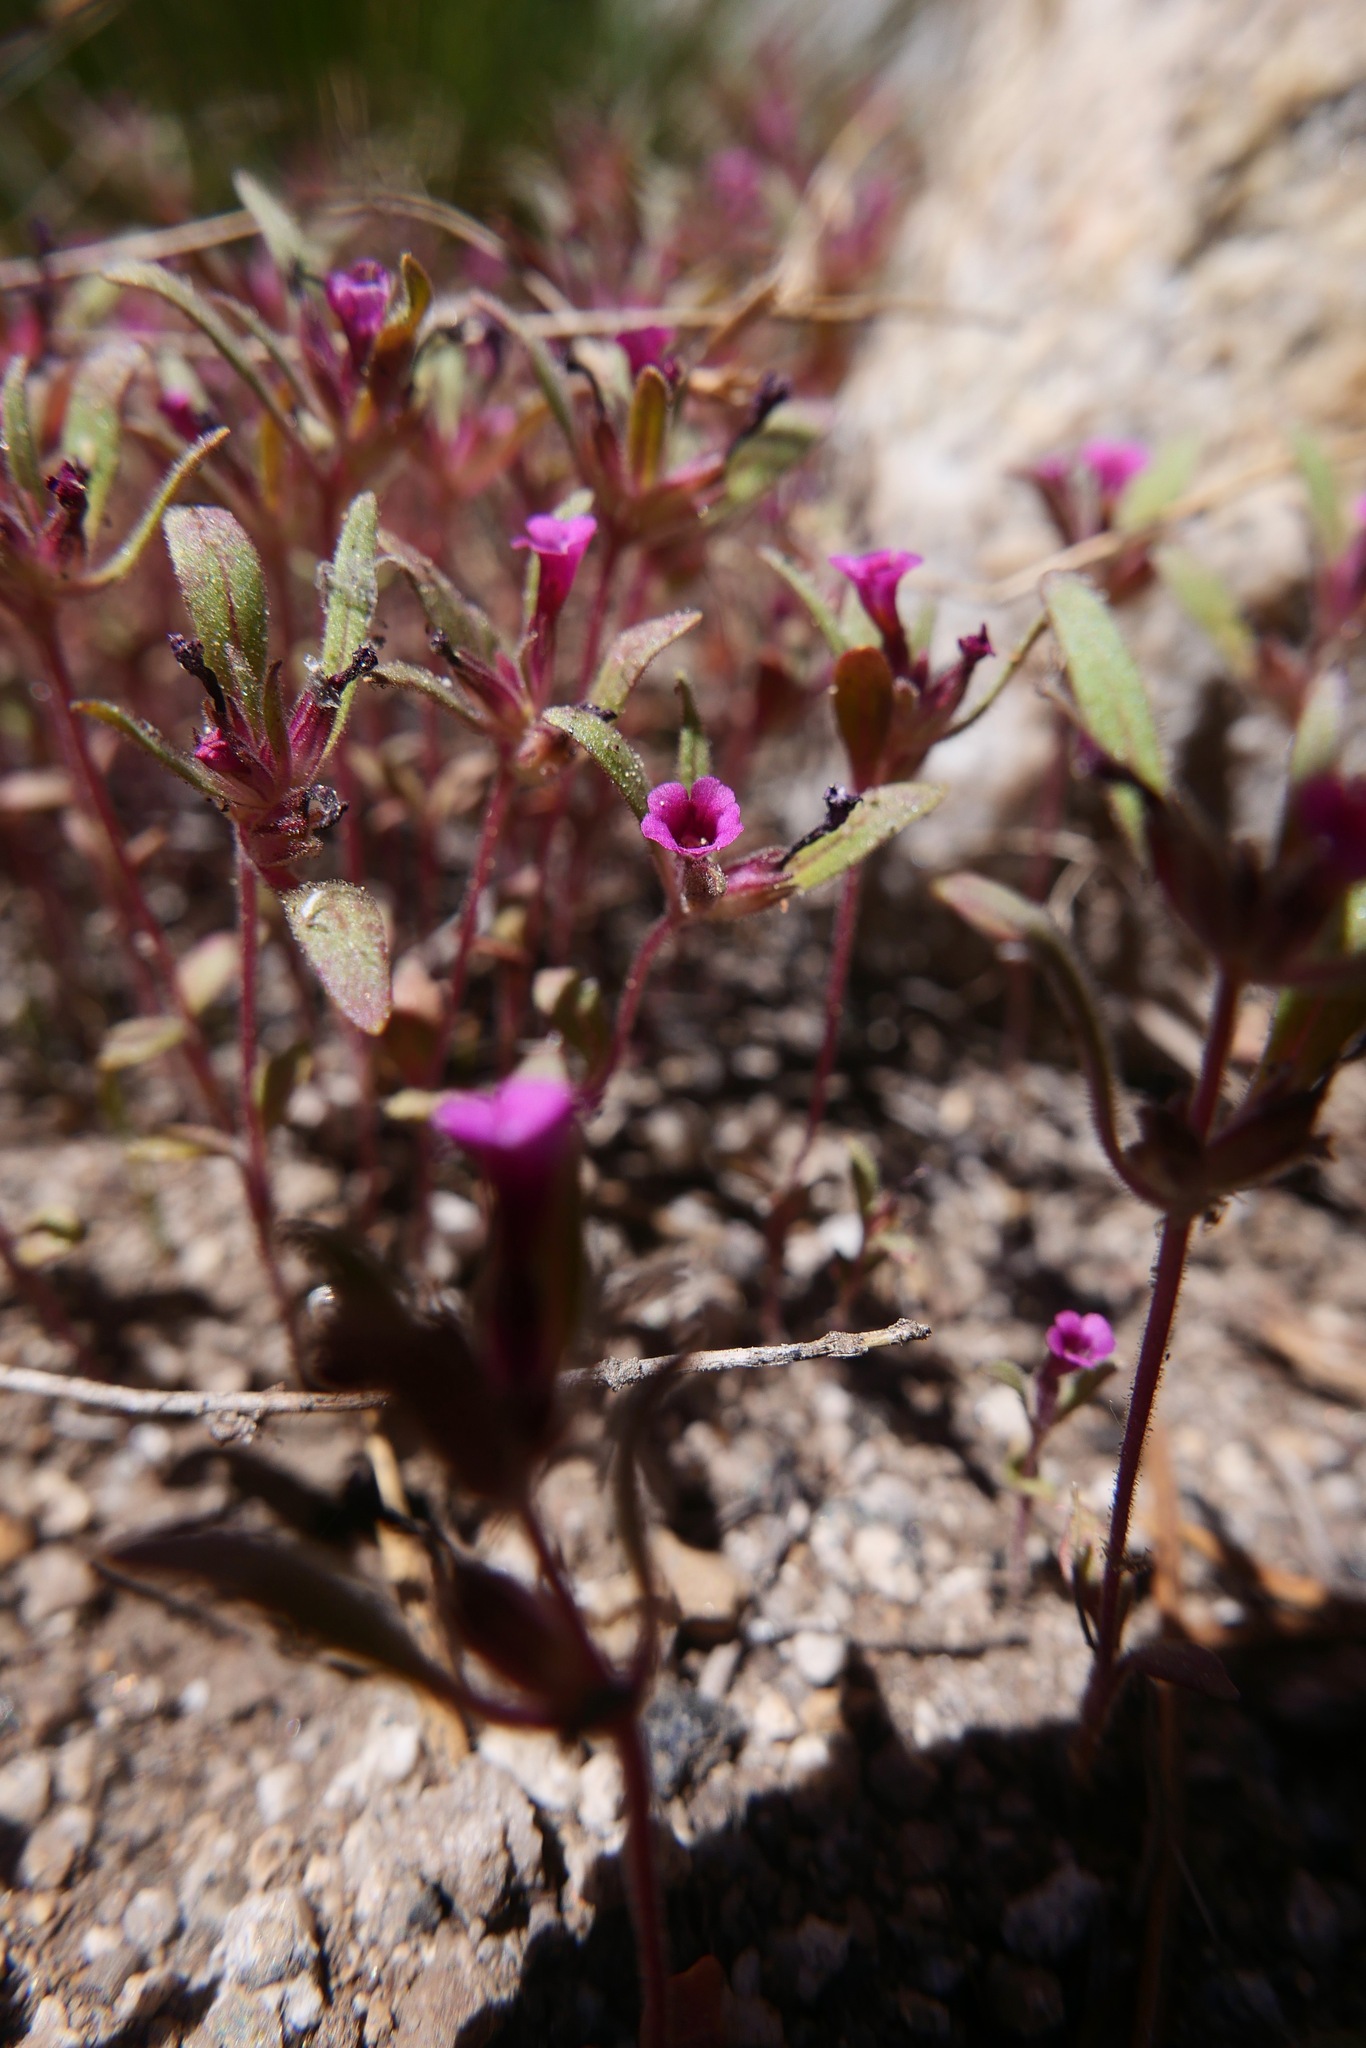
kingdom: Plantae
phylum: Tracheophyta
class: Magnoliopsida
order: Lamiales
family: Phrymaceae
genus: Diplacus
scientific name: Diplacus leptaleus
